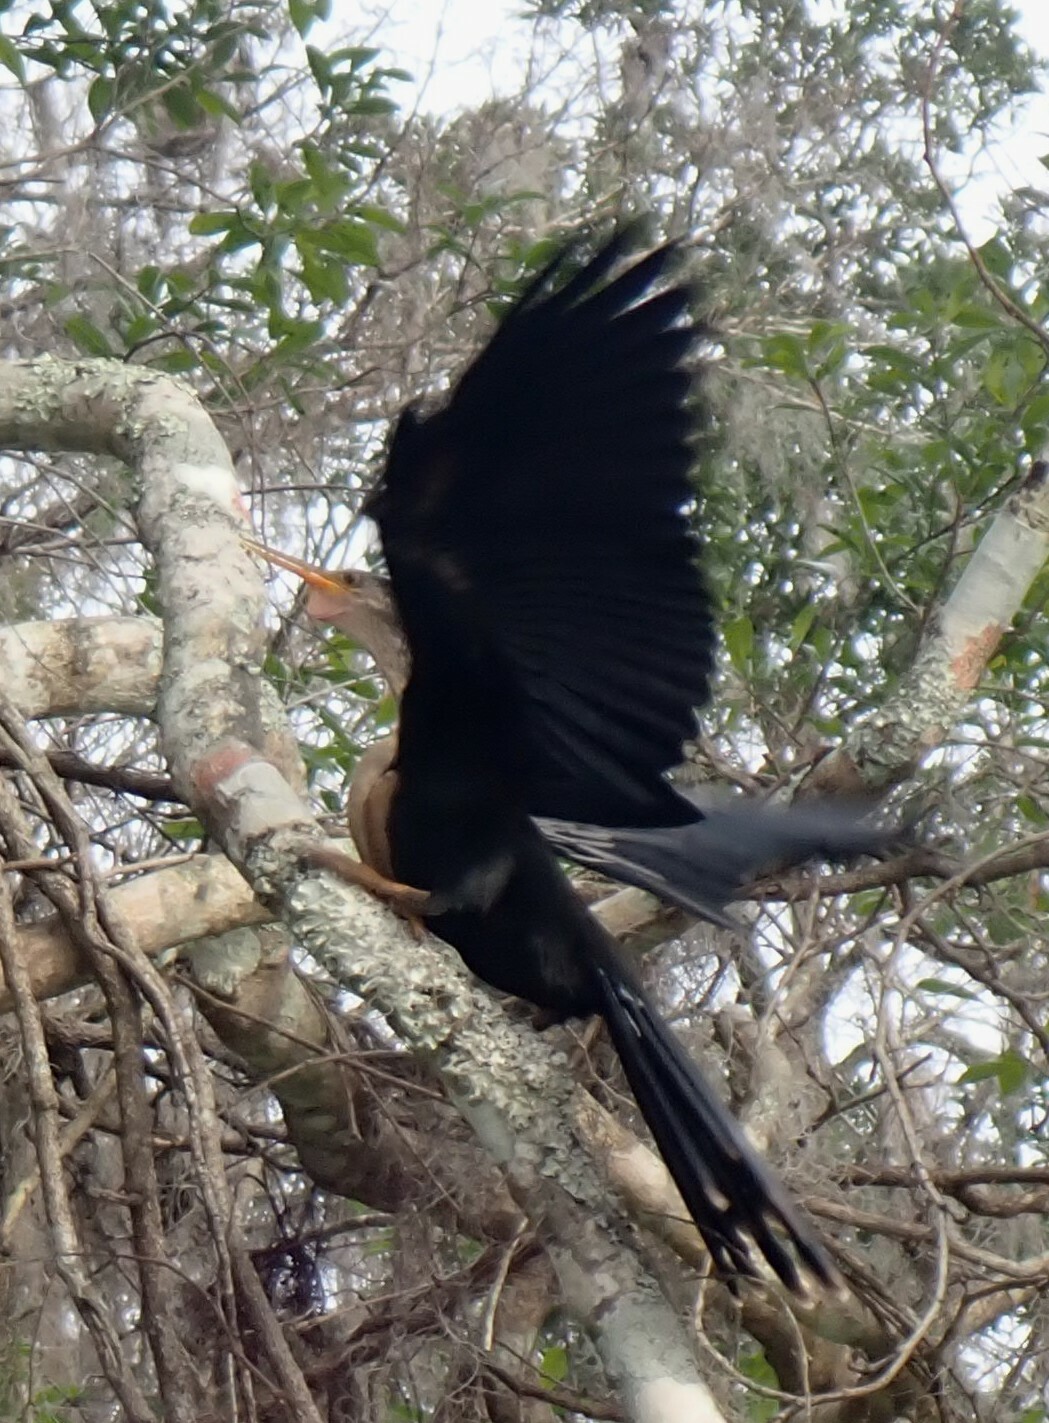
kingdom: Animalia
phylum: Chordata
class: Aves
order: Suliformes
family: Anhingidae
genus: Anhinga
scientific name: Anhinga anhinga
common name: Anhinga
